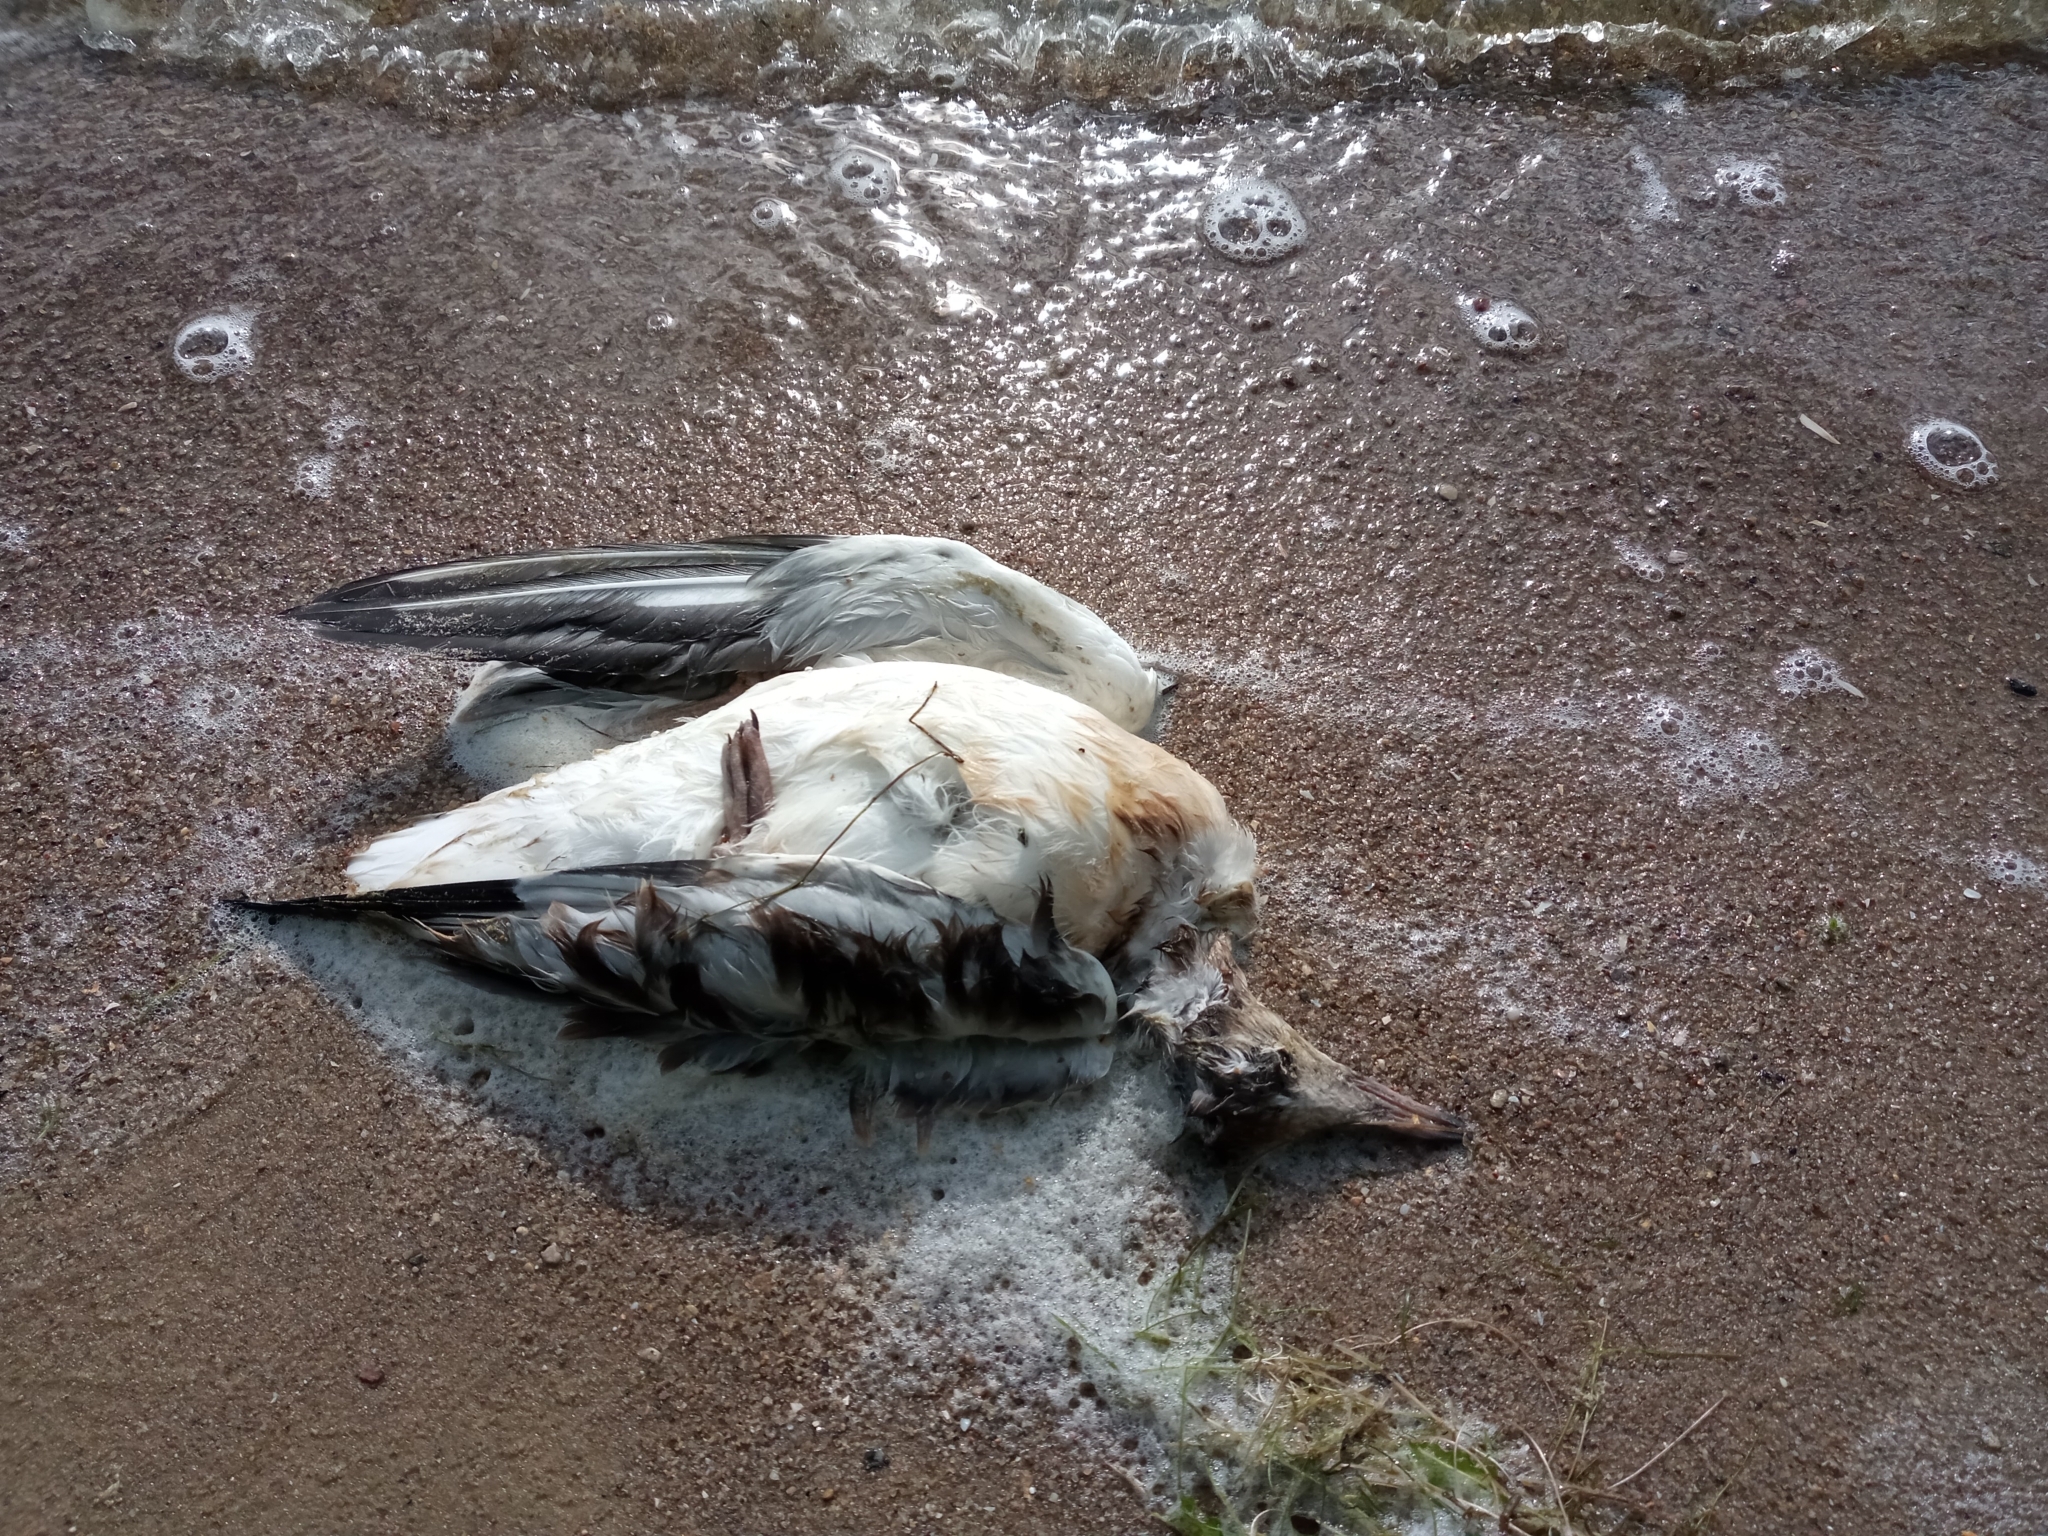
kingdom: Animalia
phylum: Chordata
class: Aves
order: Charadriiformes
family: Laridae
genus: Chroicocephalus
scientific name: Chroicocephalus ridibundus
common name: Black-headed gull
